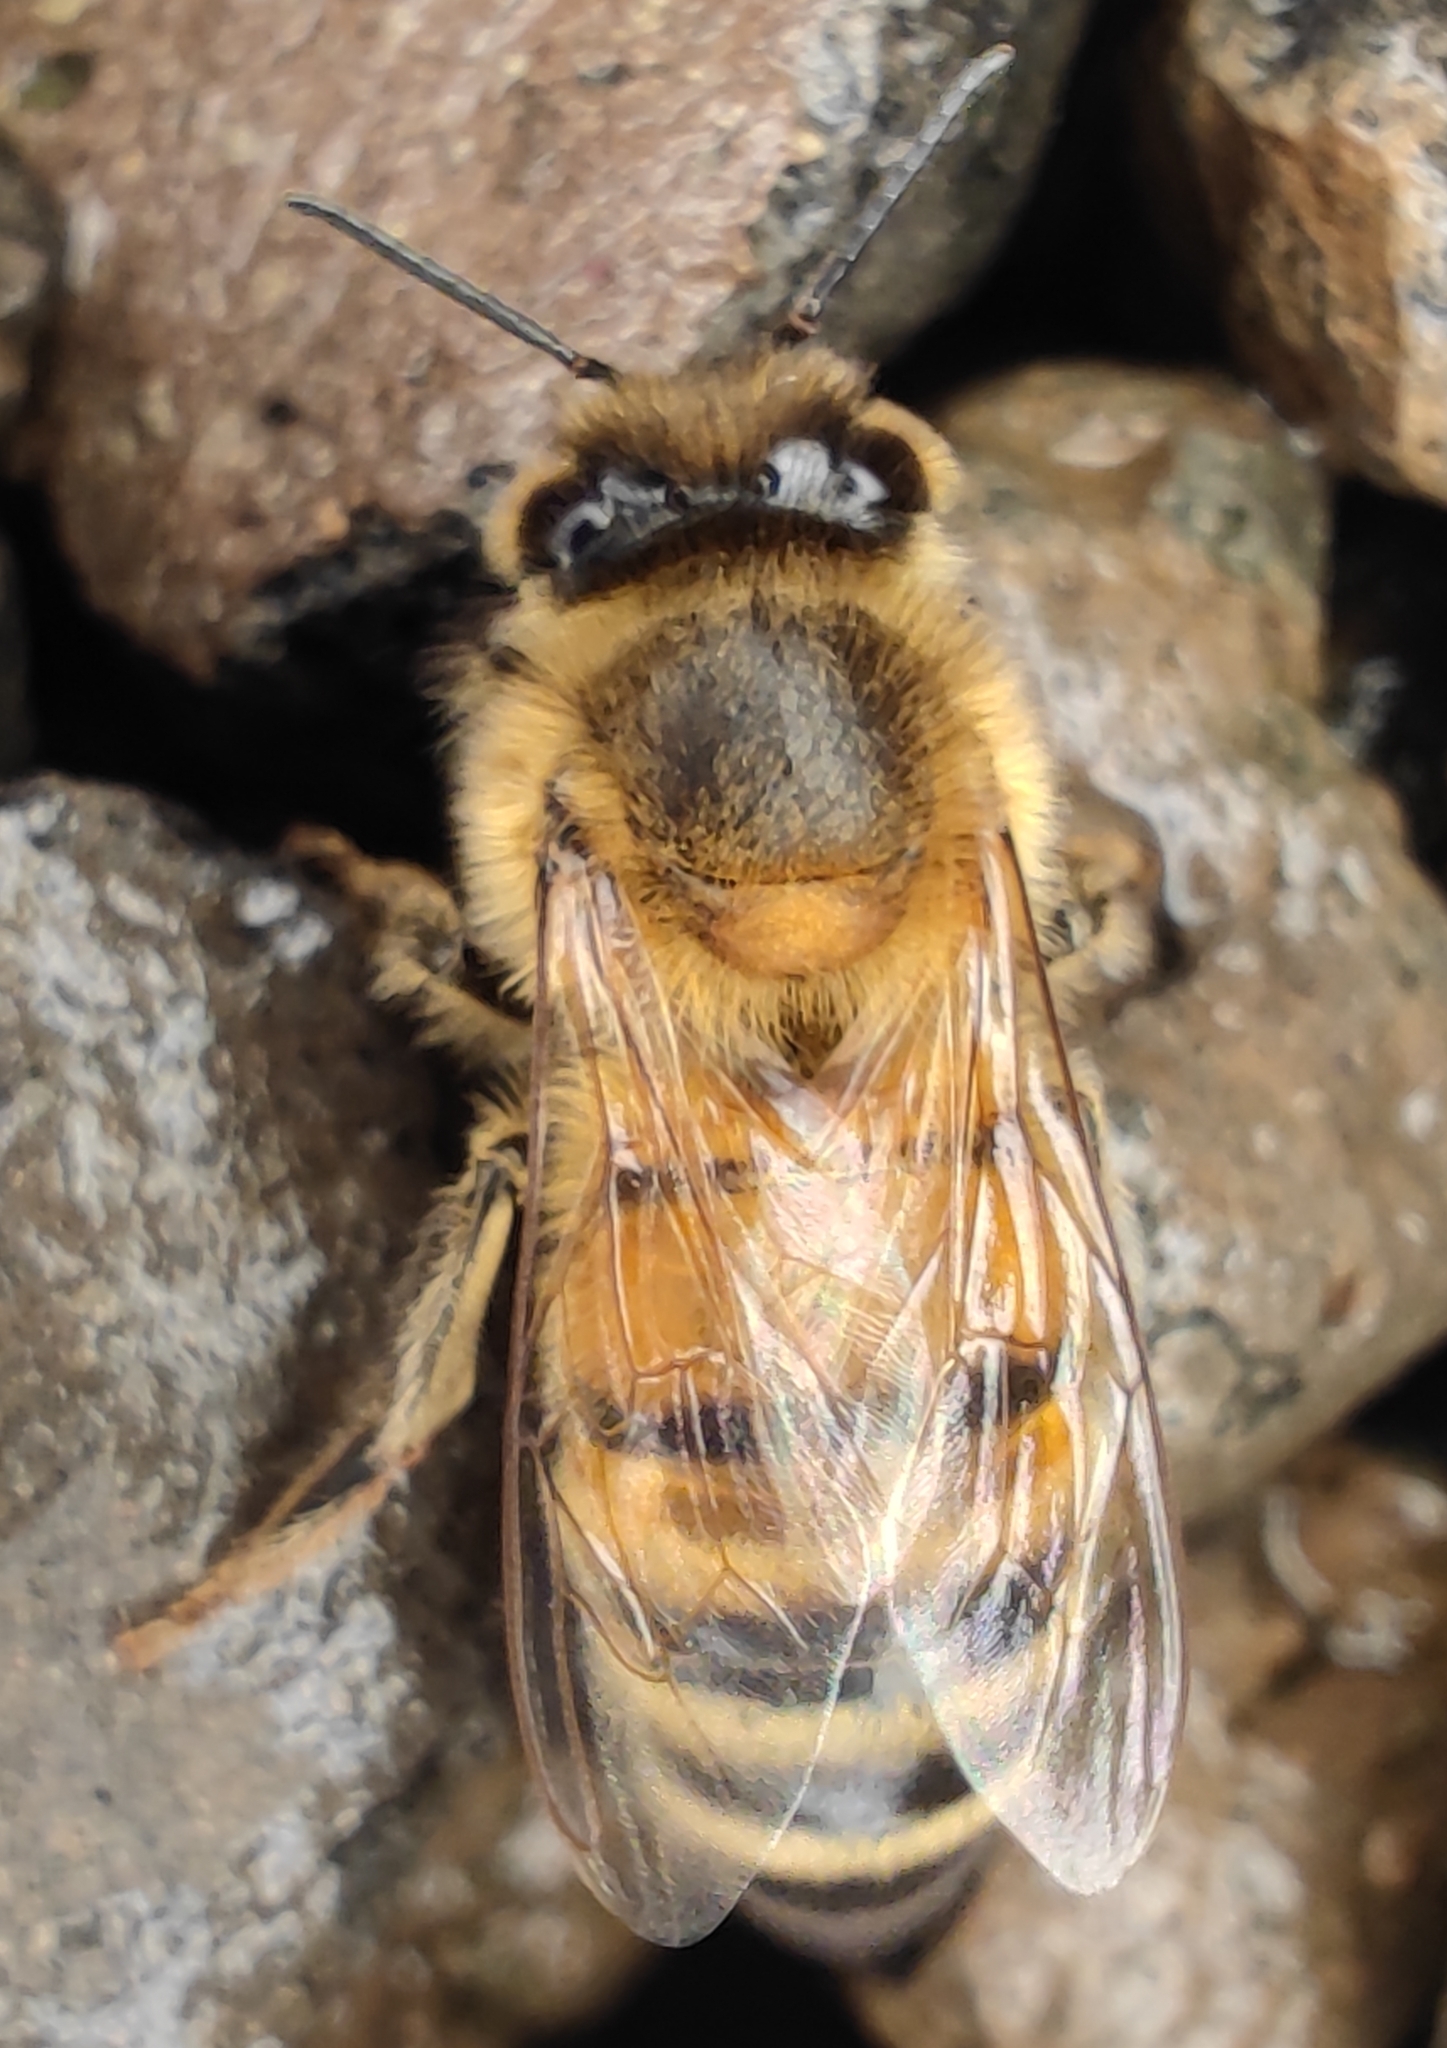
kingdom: Animalia
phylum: Arthropoda
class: Insecta
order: Hymenoptera
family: Apidae
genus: Apis
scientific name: Apis mellifera
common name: Honey bee
